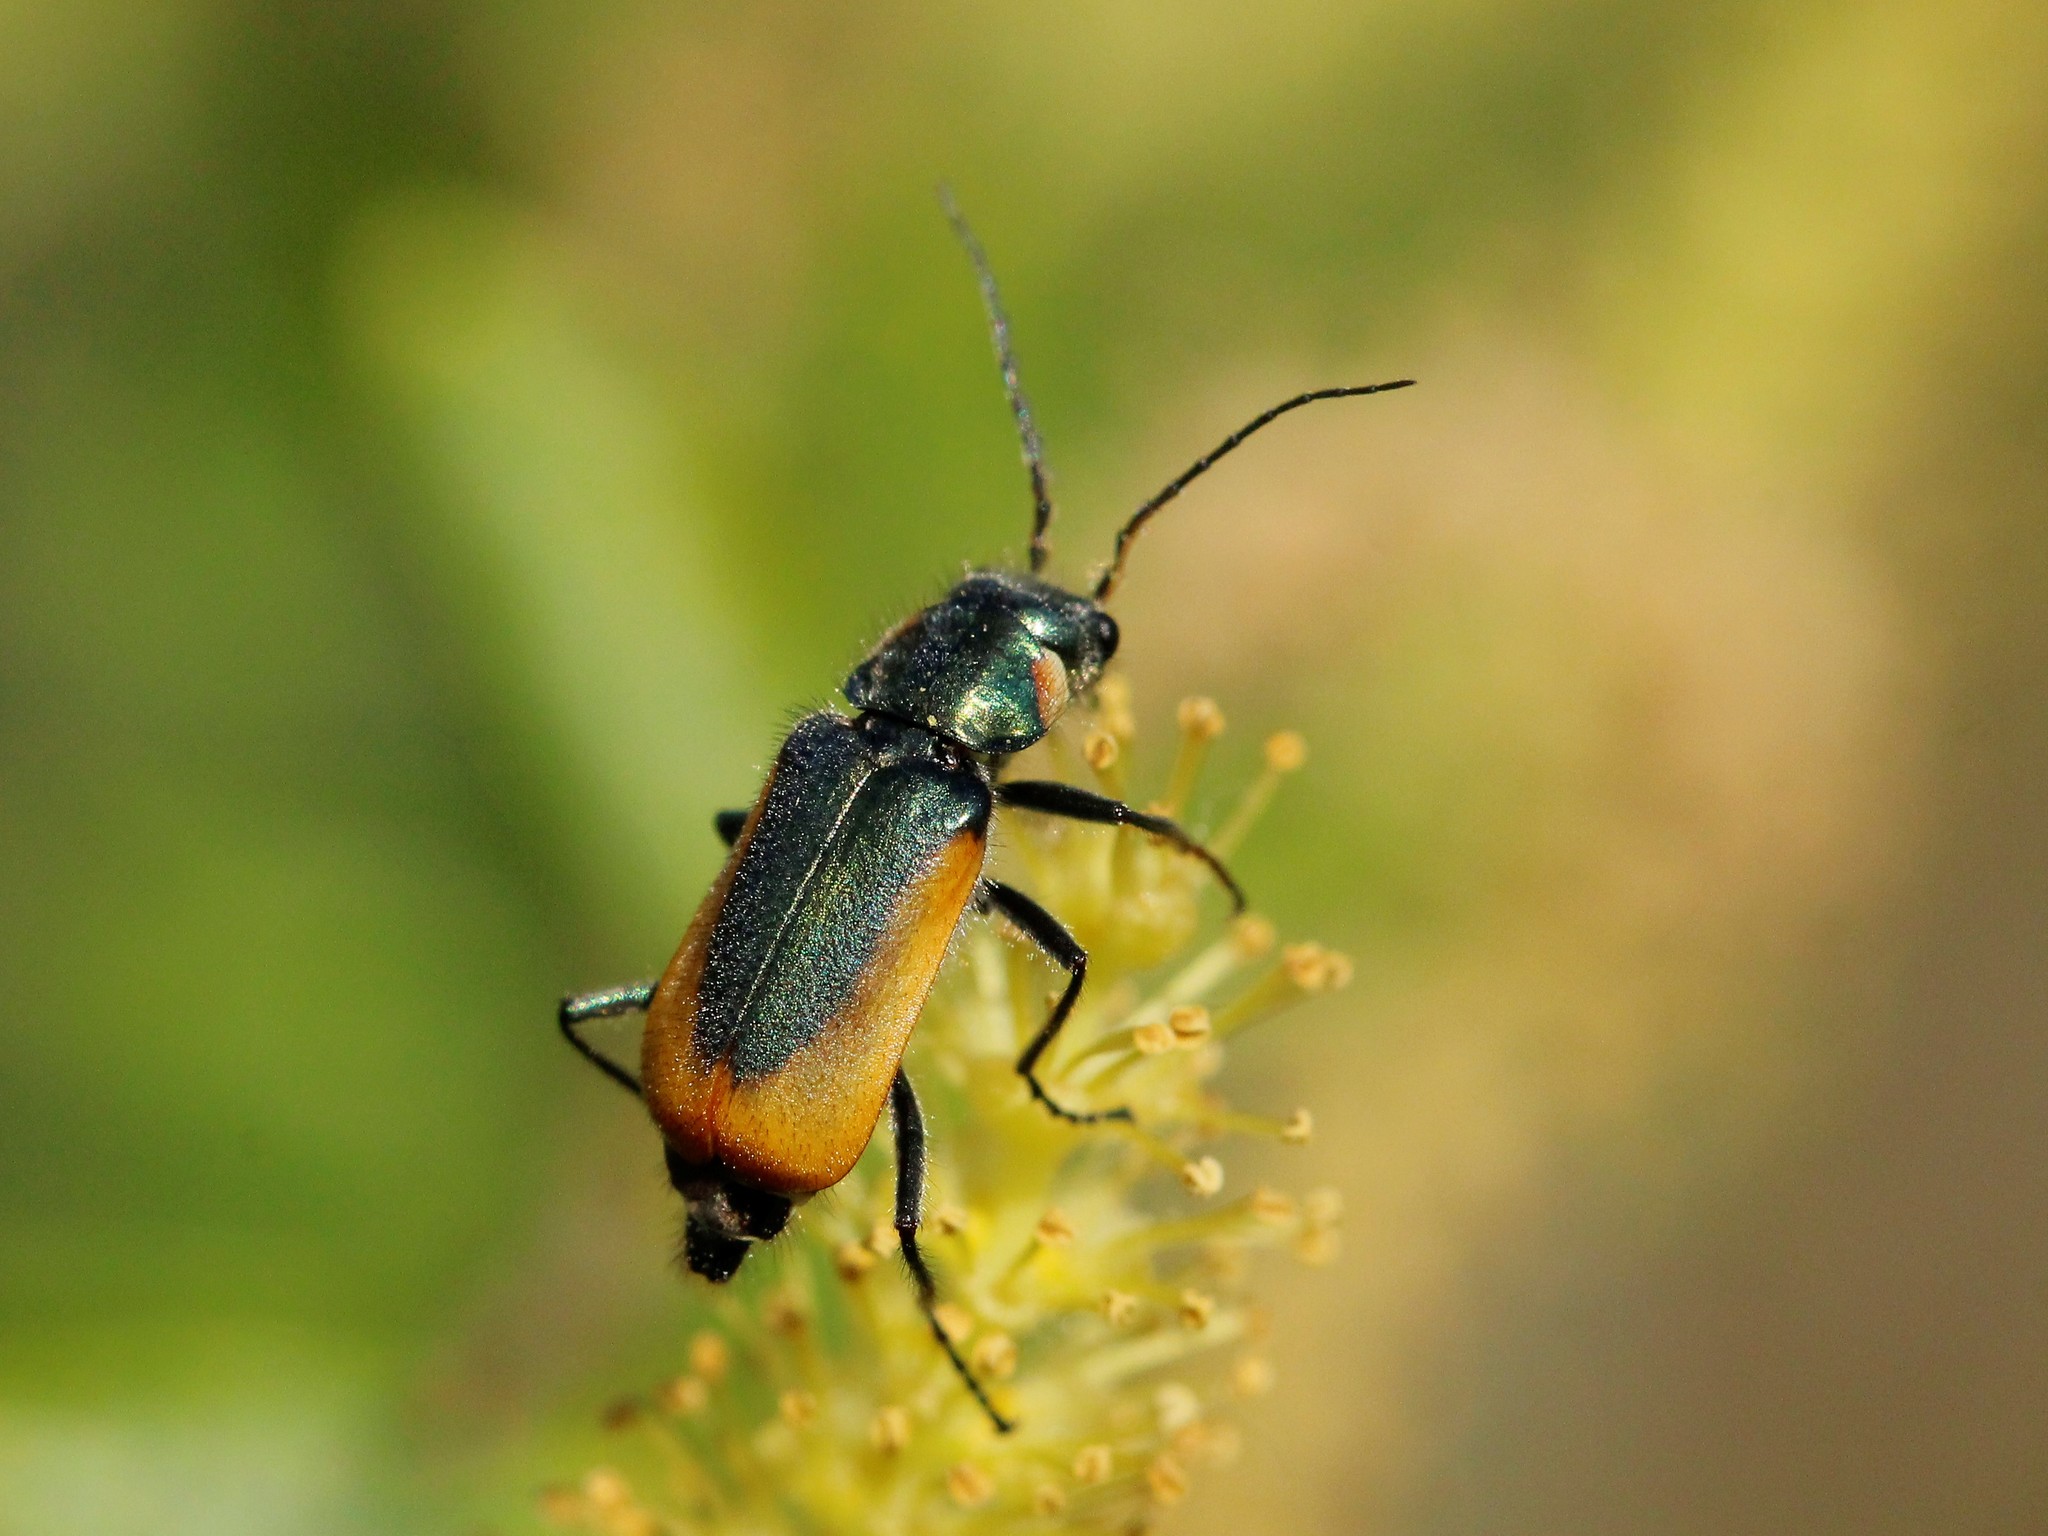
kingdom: Animalia
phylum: Arthropoda
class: Insecta
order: Coleoptera
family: Melyridae
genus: Malachius
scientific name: Malachius aeneus
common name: Scarlet malachite beetle
